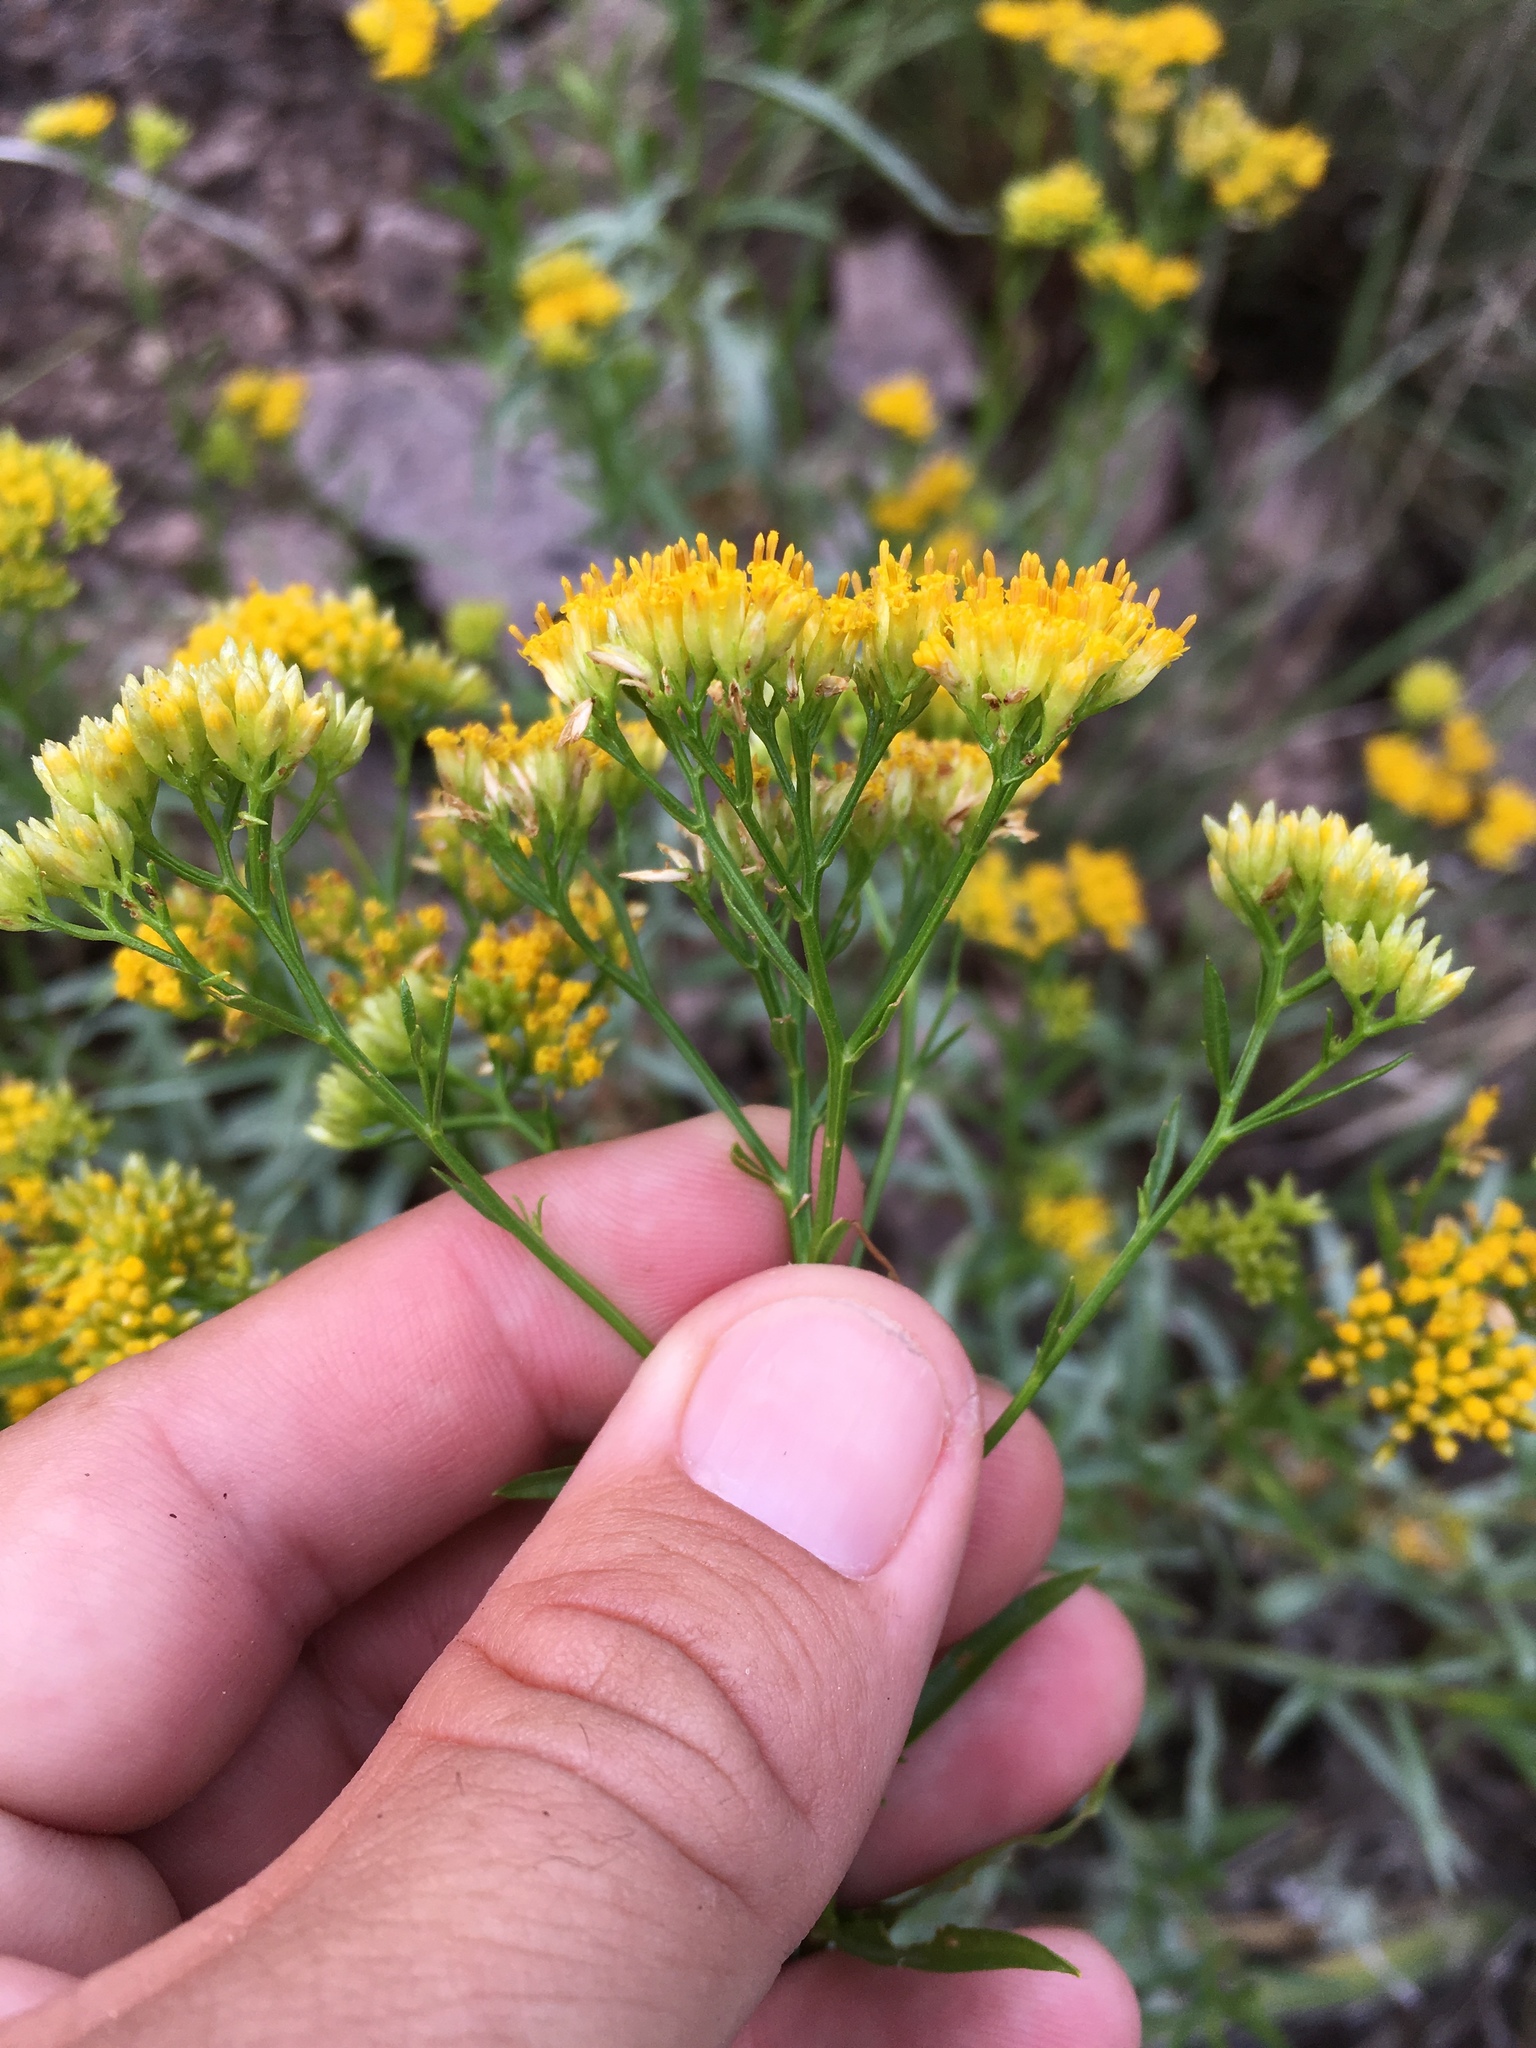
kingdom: Plantae
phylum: Tracheophyta
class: Magnoliopsida
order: Asterales
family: Asteraceae
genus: Gymnosperma
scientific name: Gymnosperma glutinosum
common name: Gumhead
